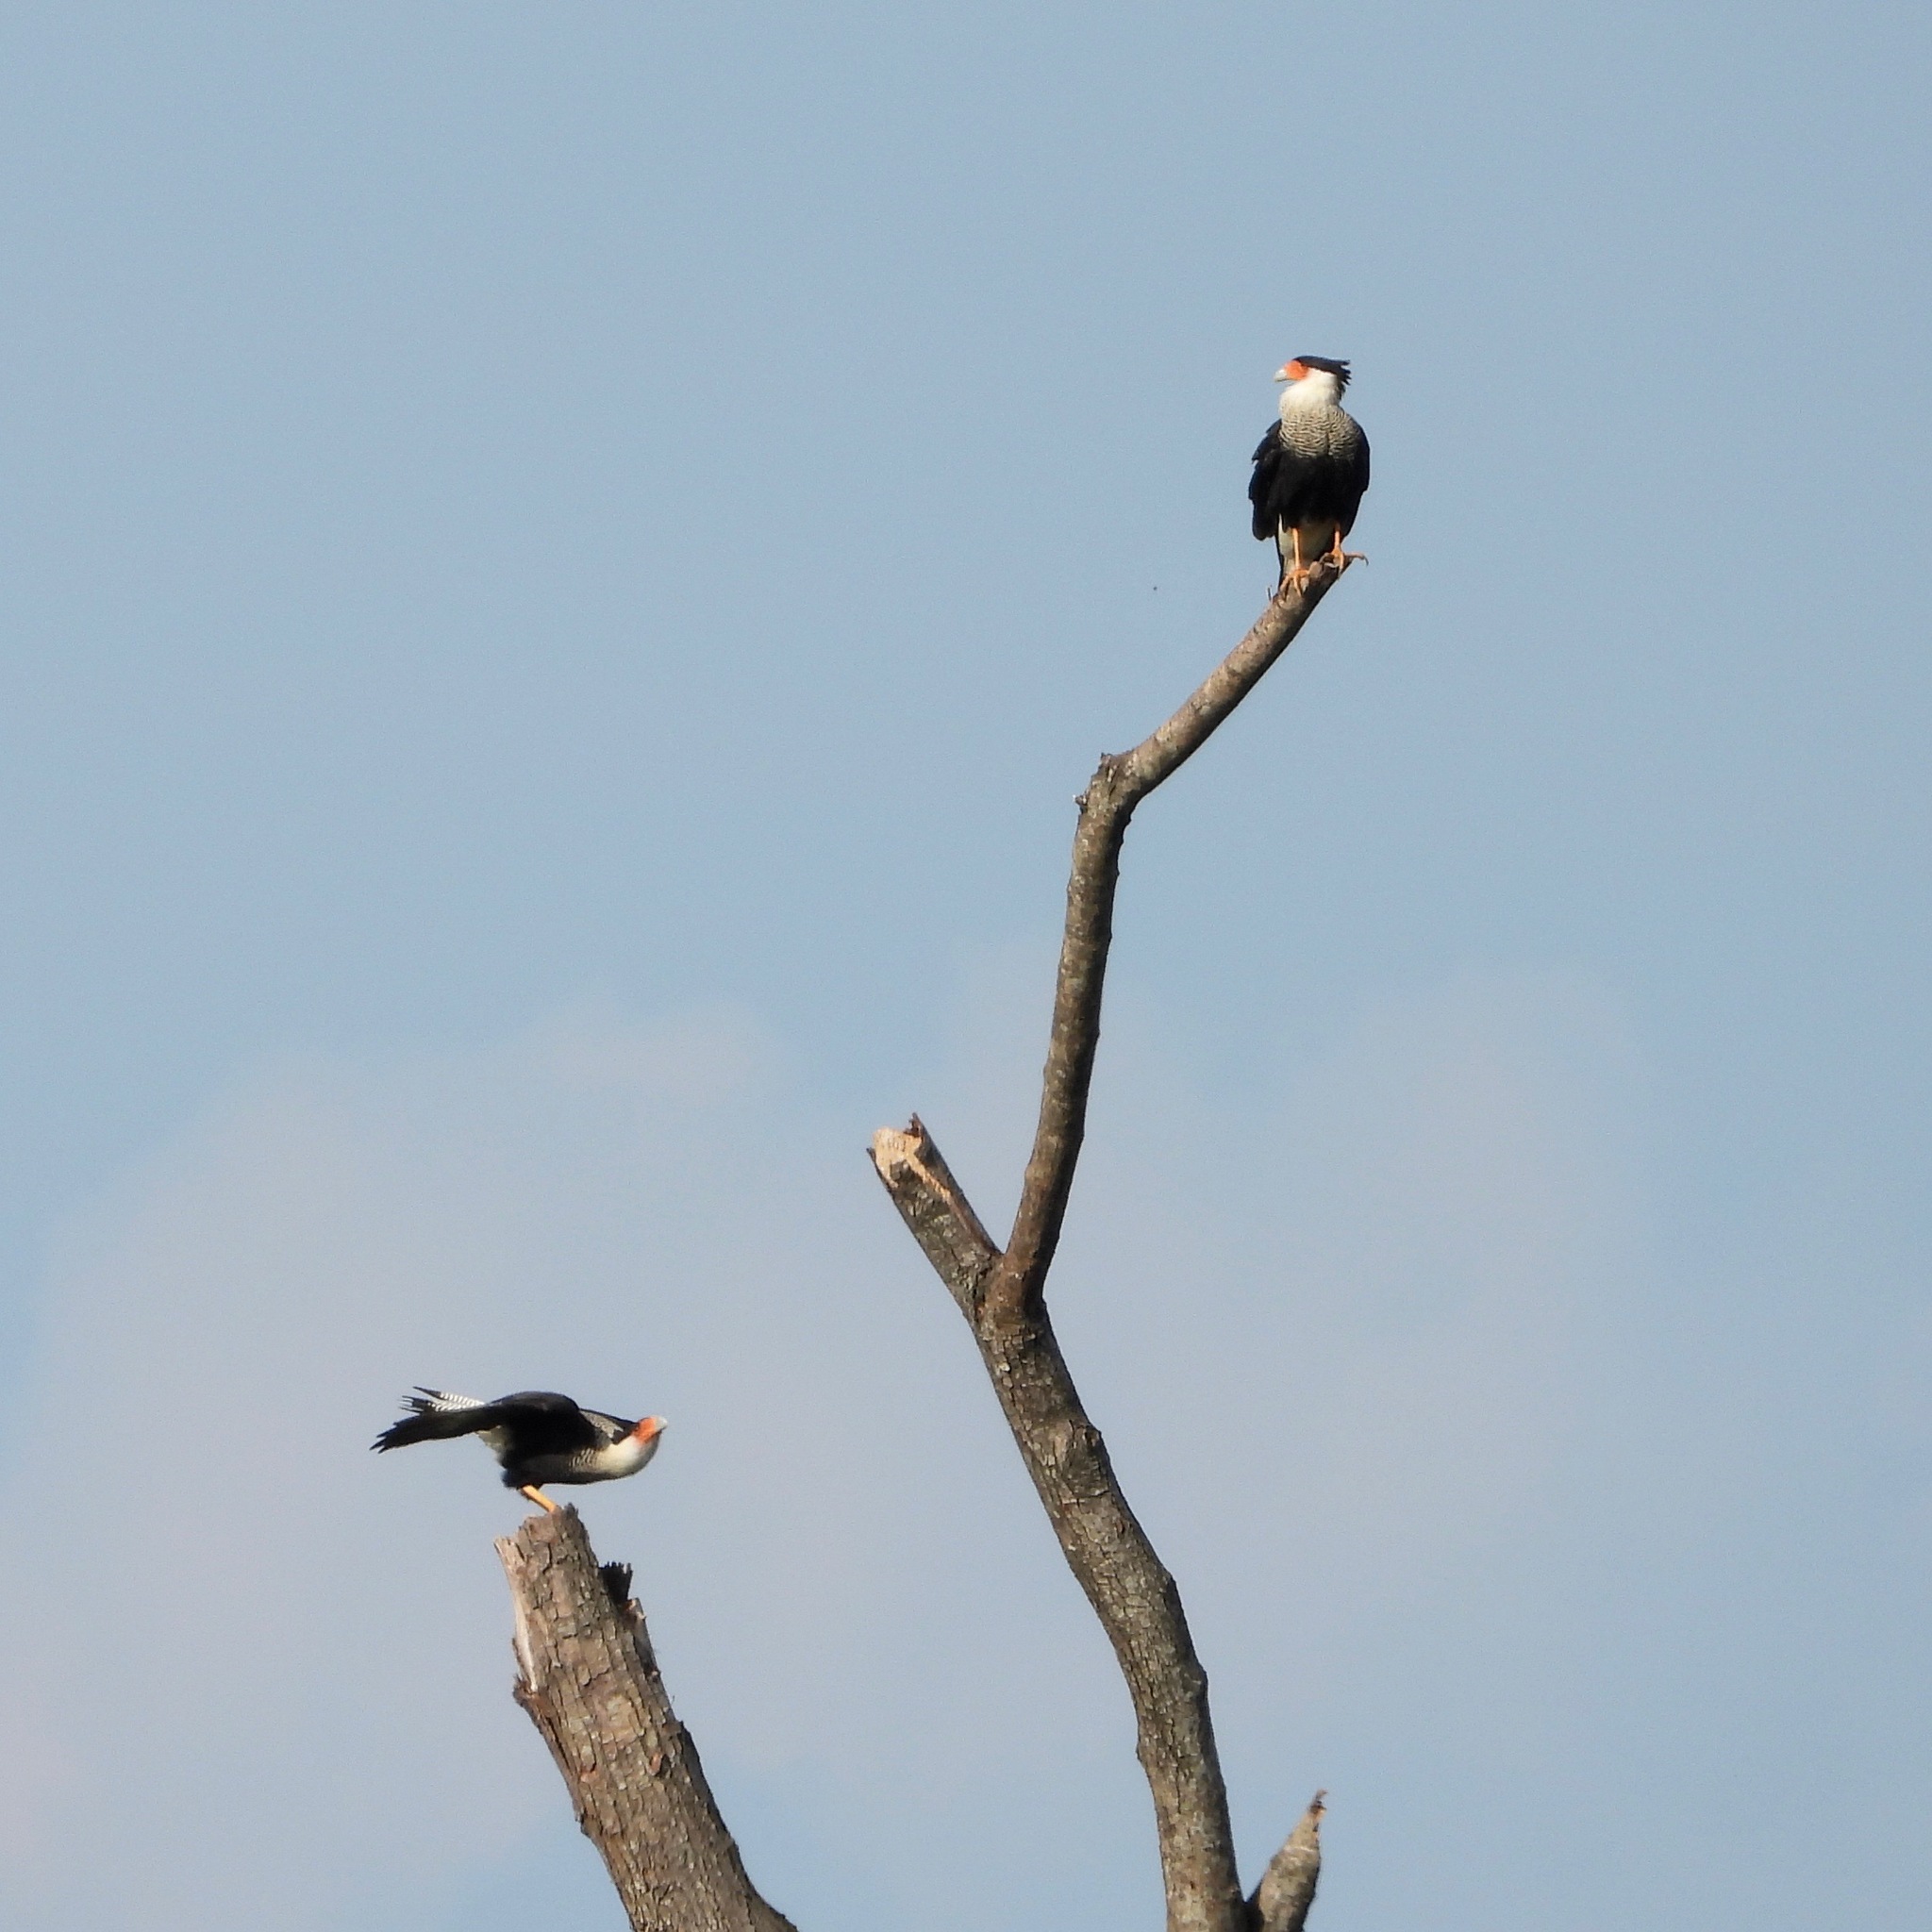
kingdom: Animalia
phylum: Chordata
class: Aves
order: Falconiformes
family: Falconidae
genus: Caracara
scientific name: Caracara plancus
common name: Southern caracara
